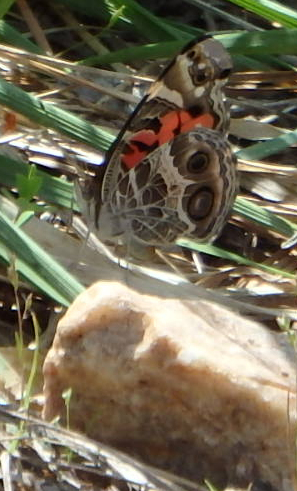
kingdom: Animalia
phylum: Arthropoda
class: Insecta
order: Lepidoptera
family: Nymphalidae
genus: Vanessa
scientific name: Vanessa virginiensis
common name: American lady
